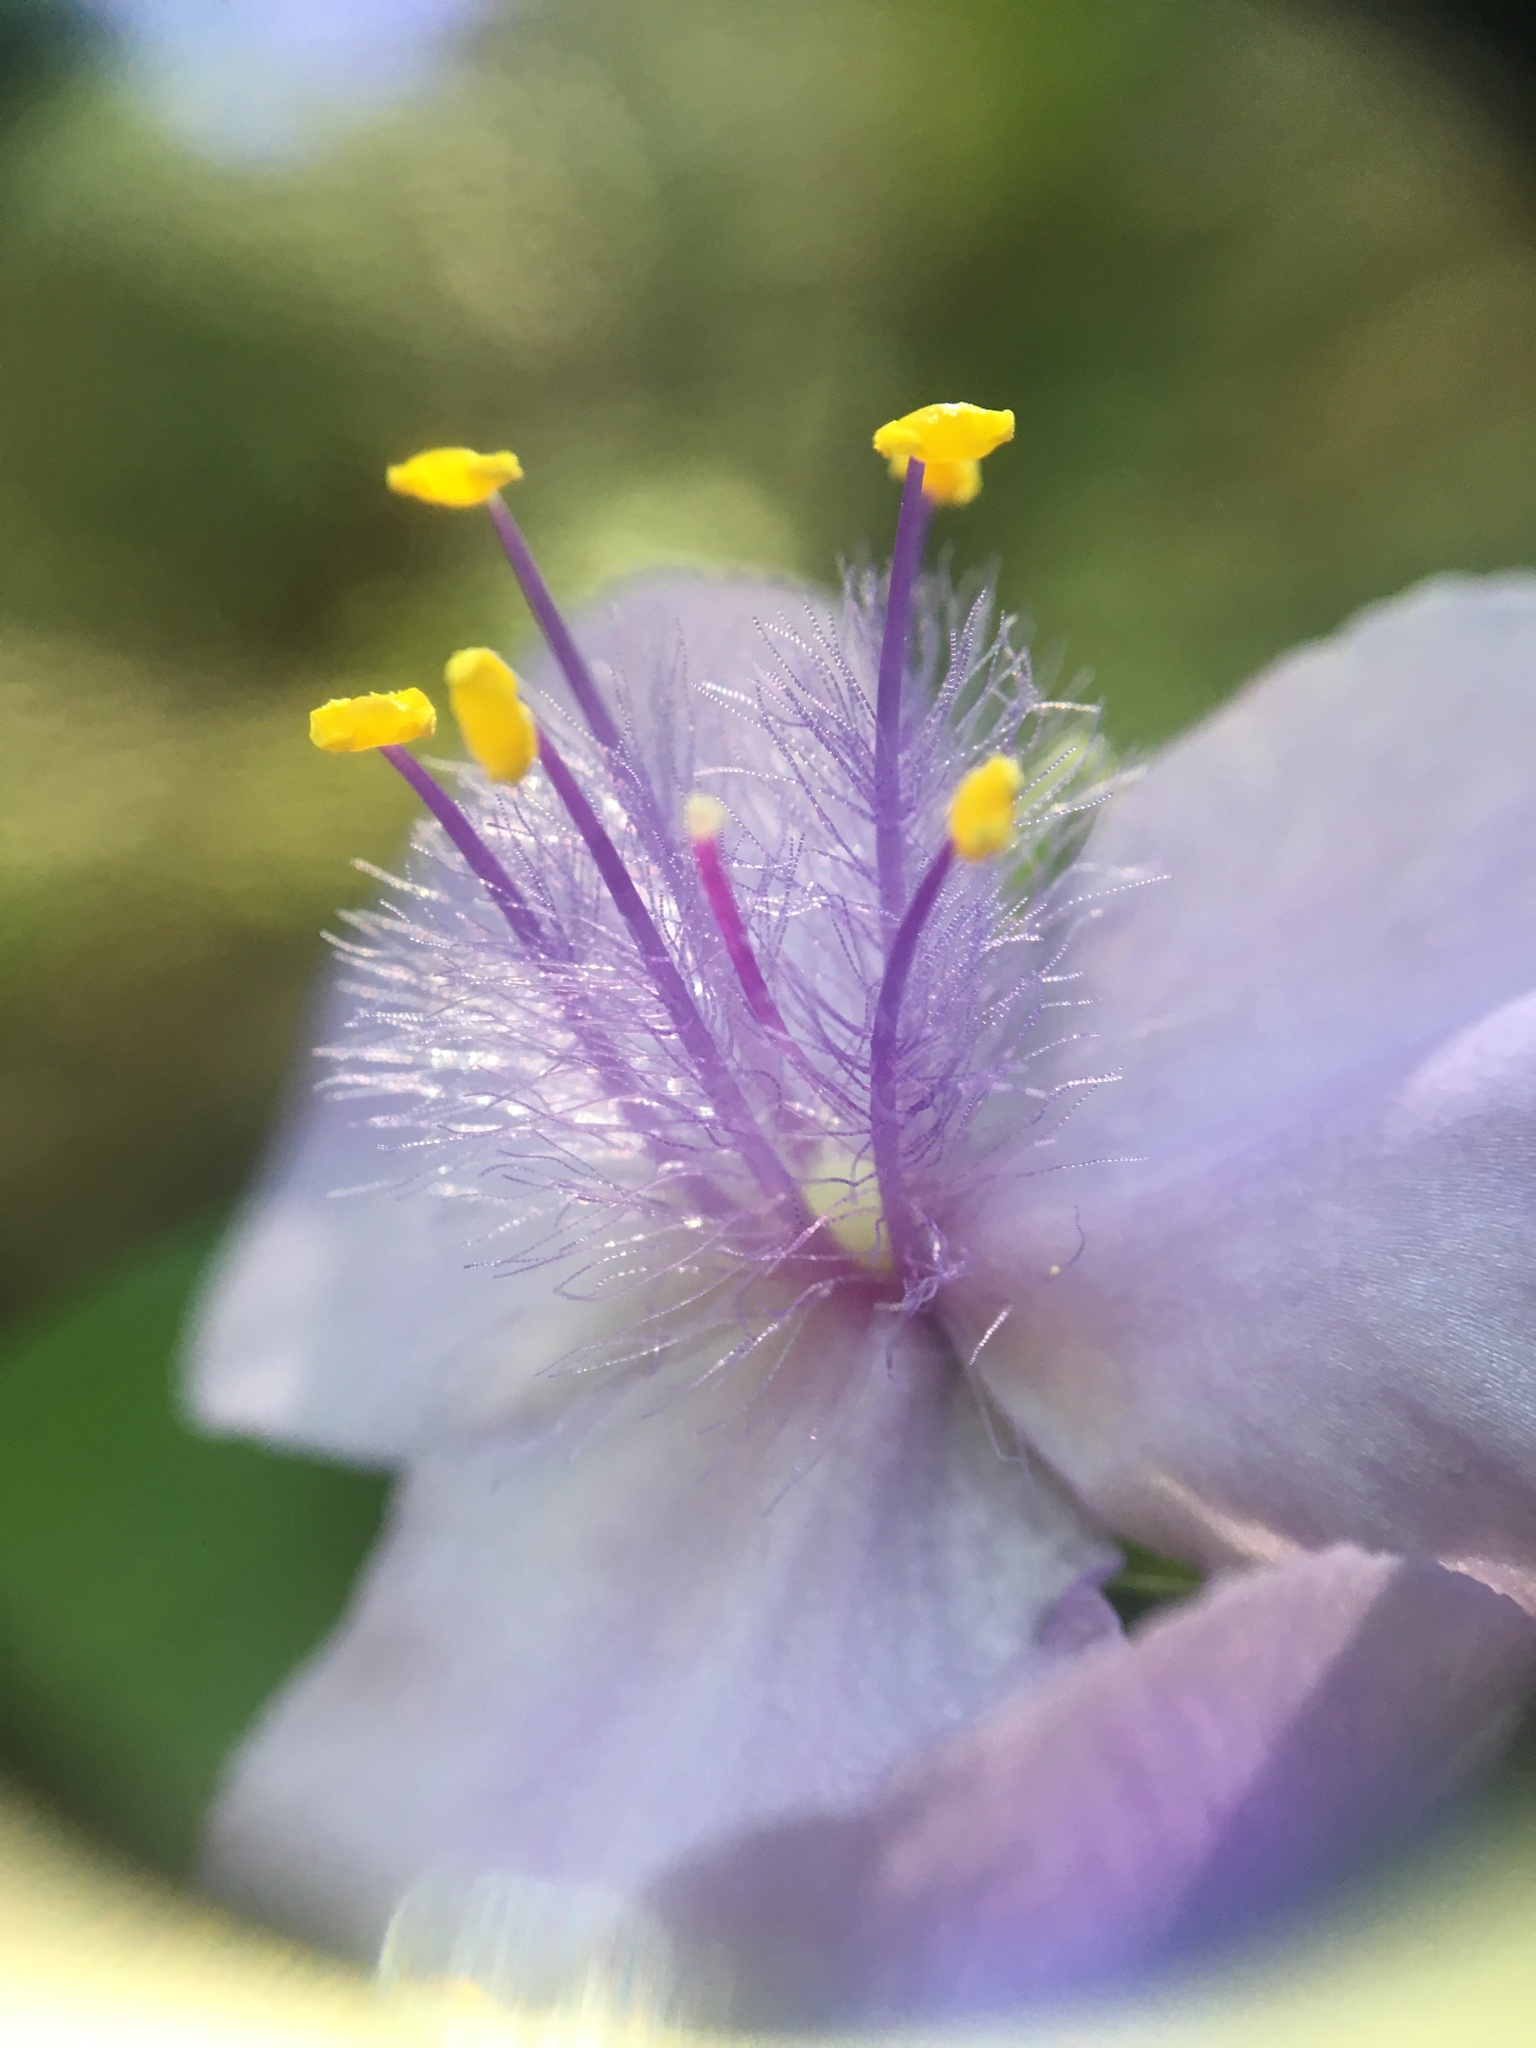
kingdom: Plantae
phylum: Tracheophyta
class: Liliopsida
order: Commelinales
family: Commelinaceae
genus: Tradescantia
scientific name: Tradescantia subaspera
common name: Wide-leaf spiderwort
